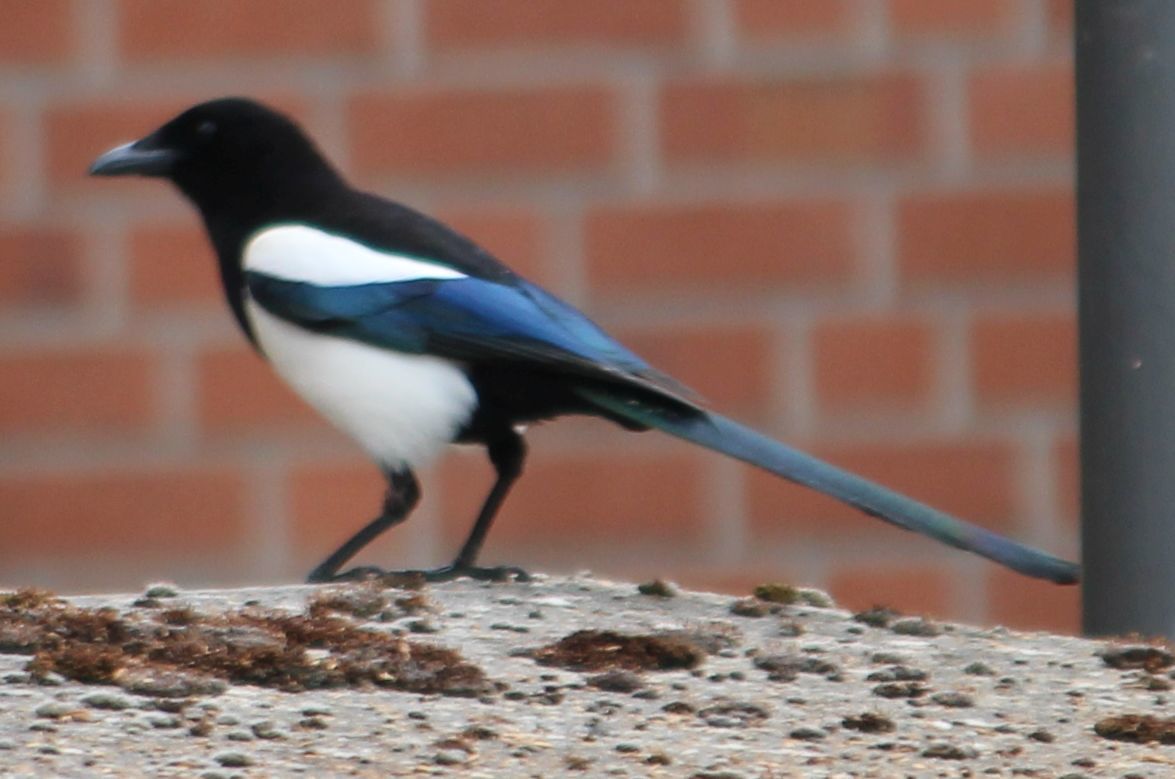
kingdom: Animalia
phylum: Chordata
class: Aves
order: Passeriformes
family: Corvidae
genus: Pica
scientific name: Pica pica
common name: Eurasian magpie
